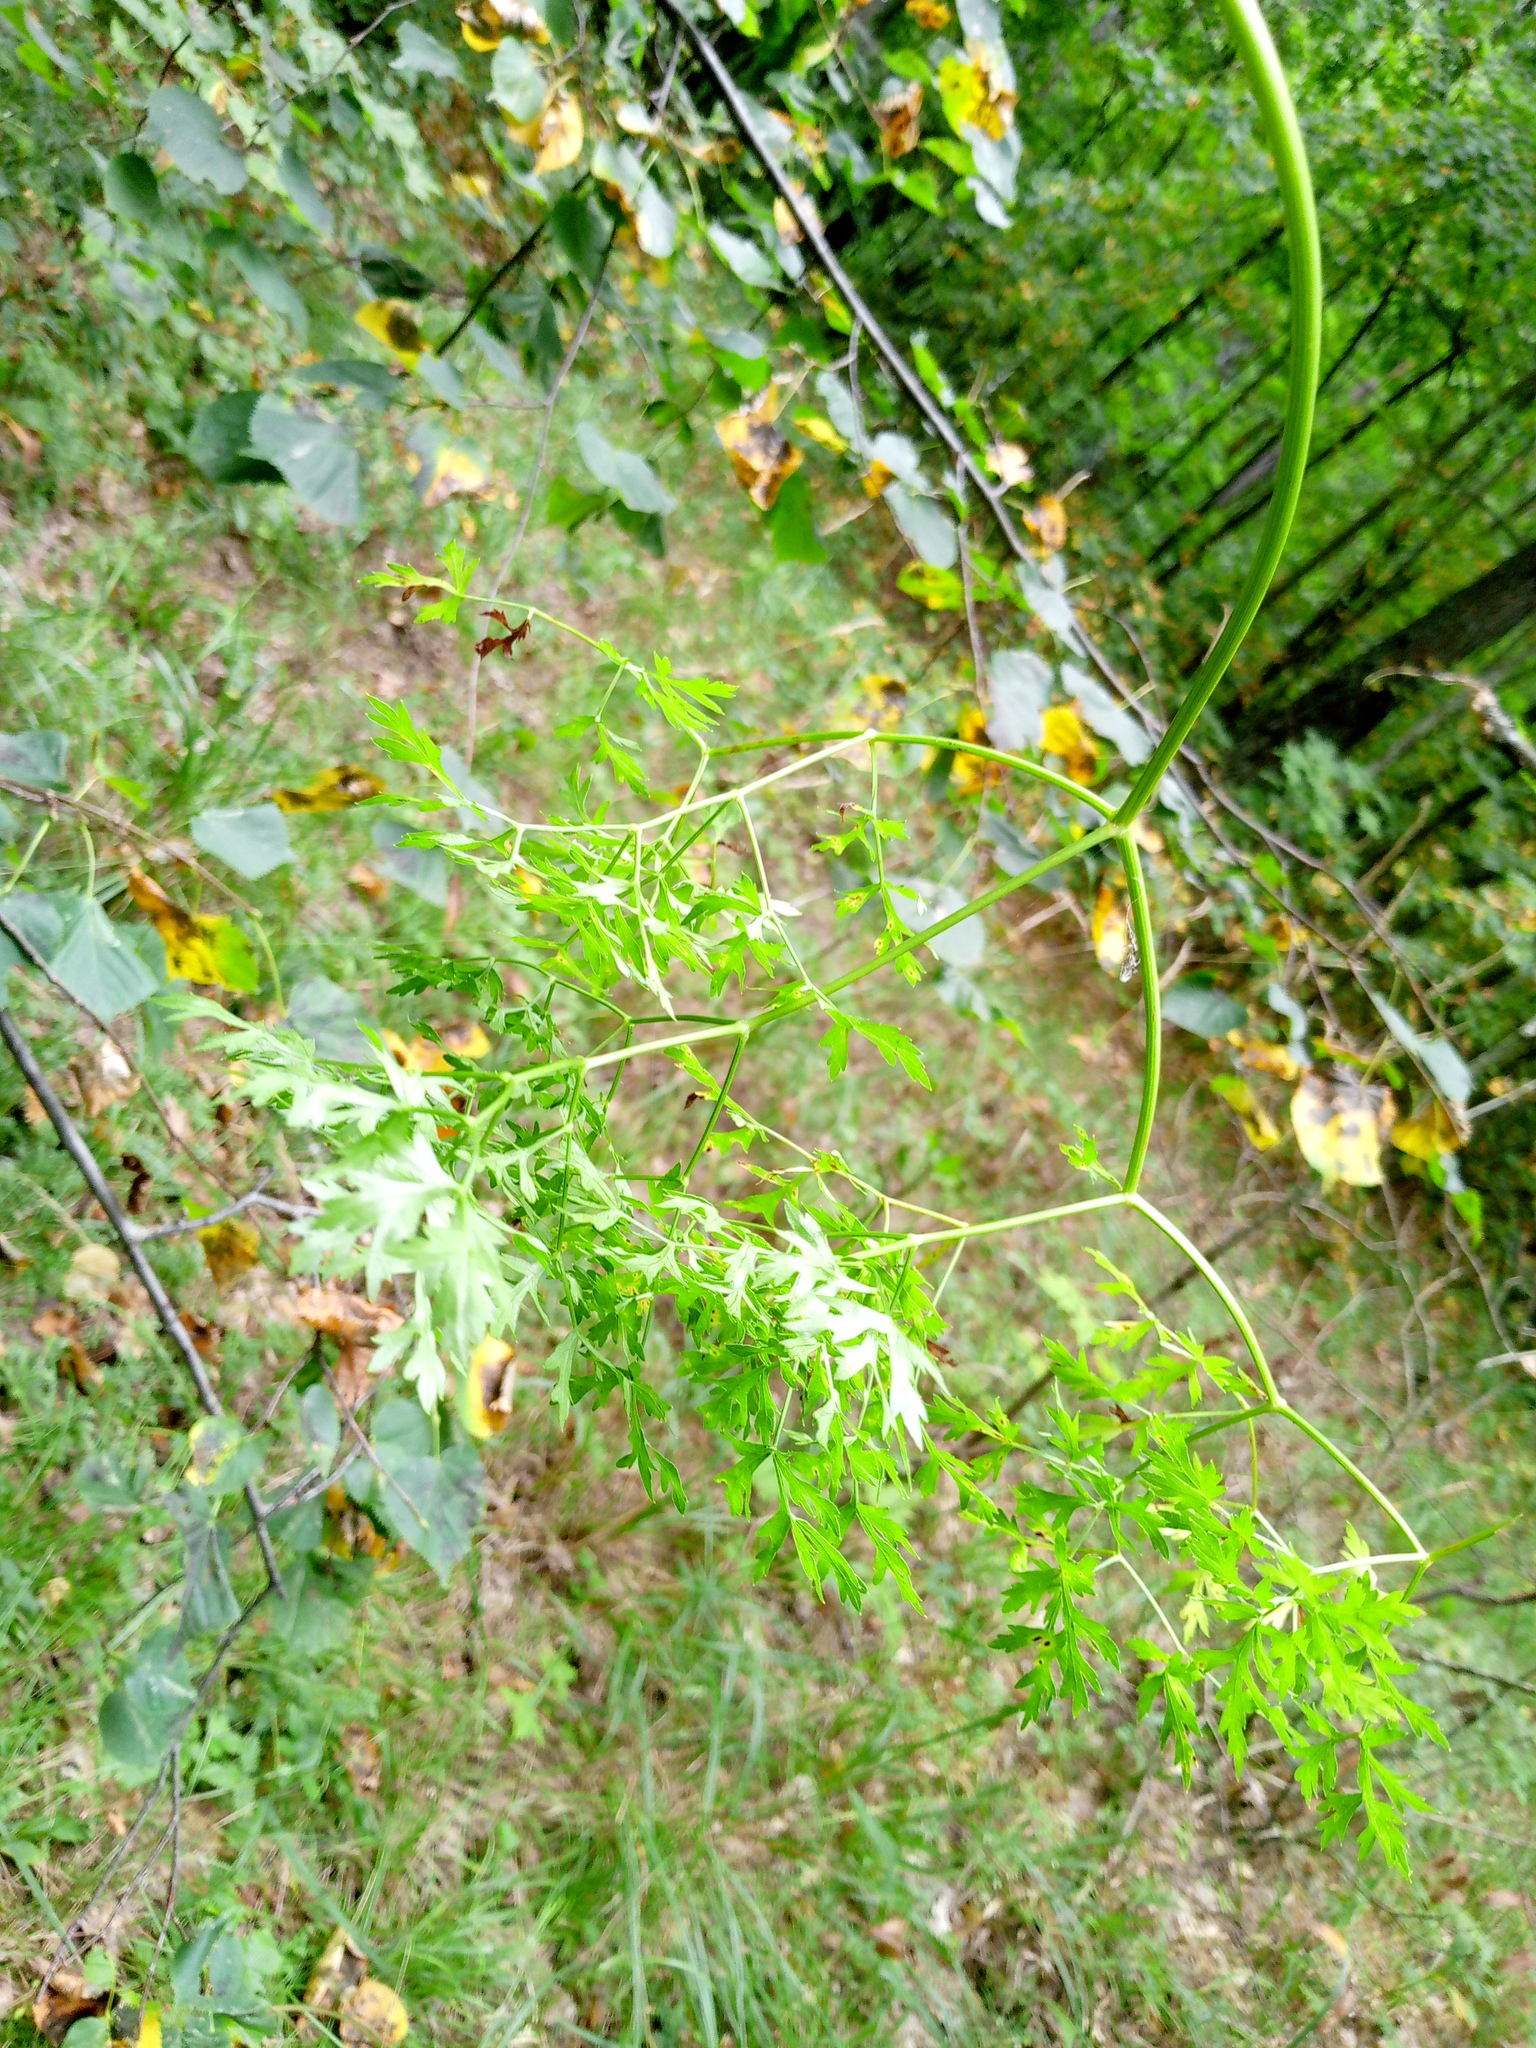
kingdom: Plantae
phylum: Tracheophyta
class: Magnoliopsida
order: Apiales
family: Apiaceae
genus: Oreoselinum
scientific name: Oreoselinum nigrum
